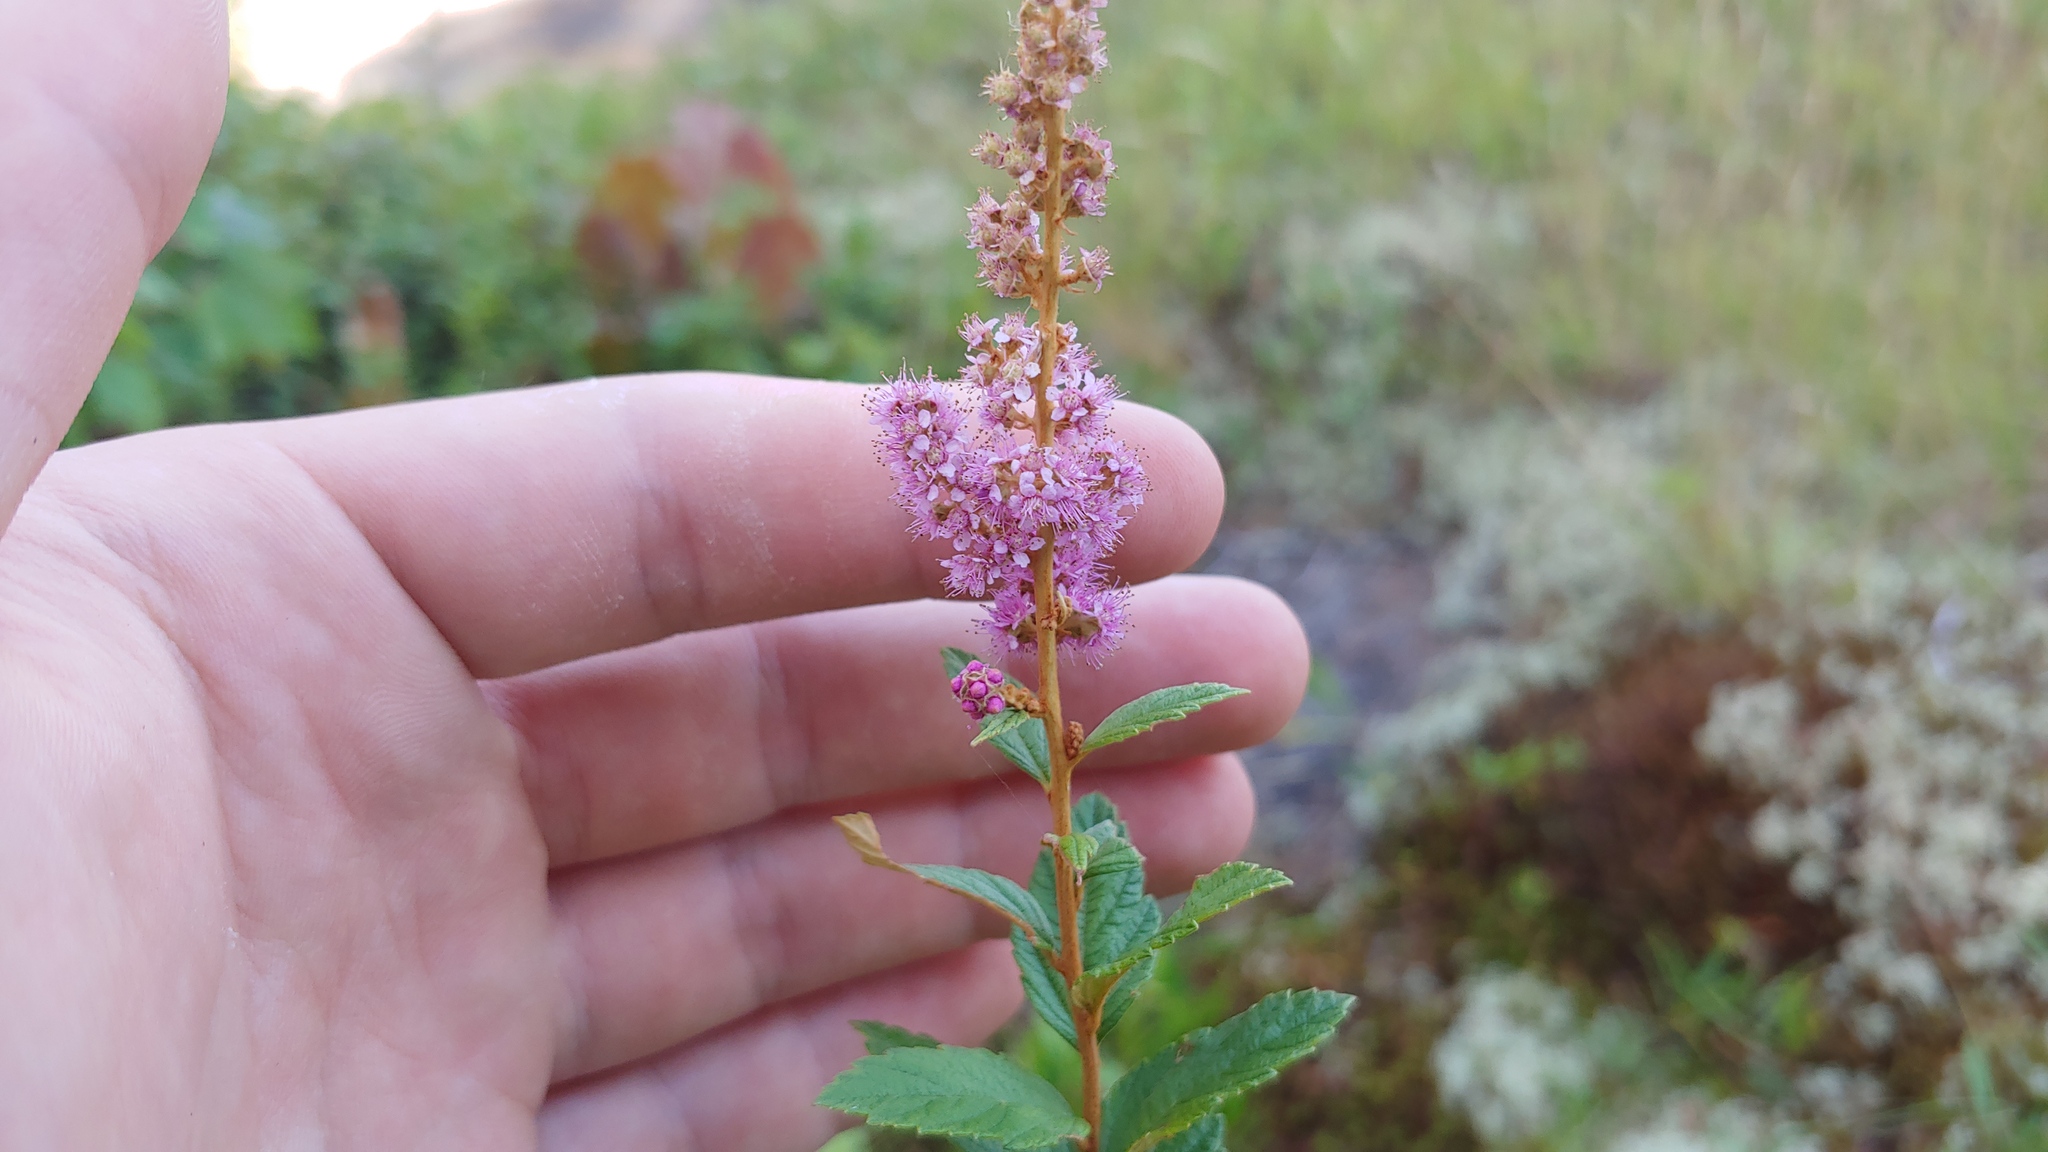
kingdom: Plantae
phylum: Tracheophyta
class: Magnoliopsida
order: Rosales
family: Rosaceae
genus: Spiraea
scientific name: Spiraea tomentosa
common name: Hardhack
